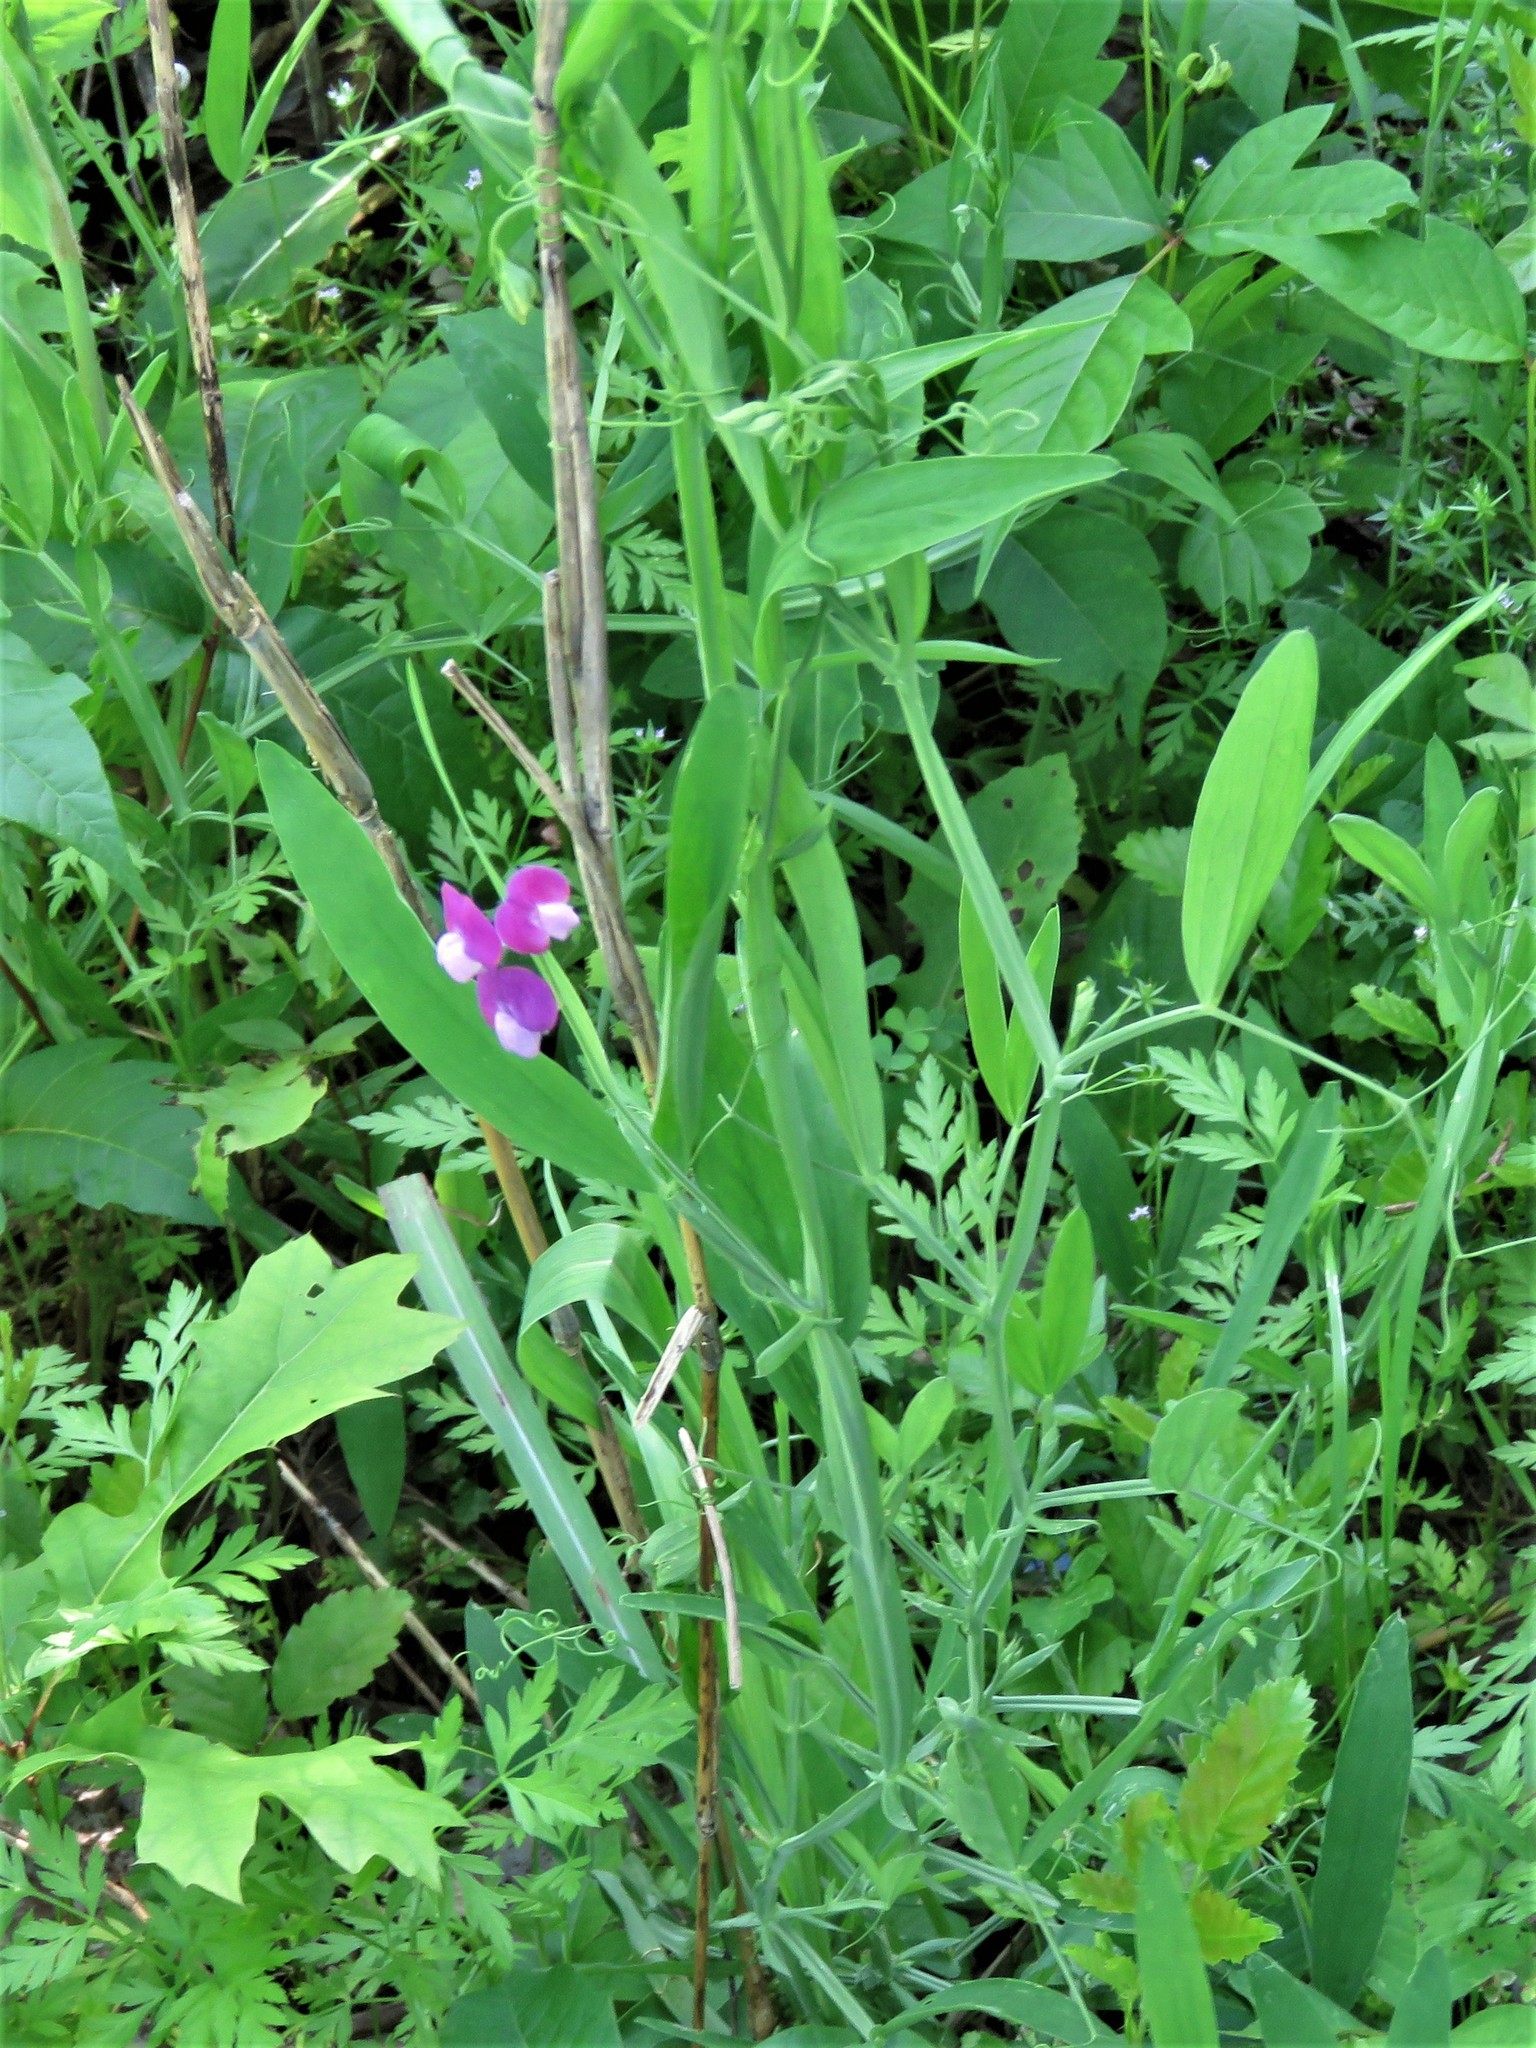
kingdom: Plantae
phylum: Tracheophyta
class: Magnoliopsida
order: Fabales
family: Fabaceae
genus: Lathyrus
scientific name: Lathyrus hirsutus
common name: Hairy vetchling
